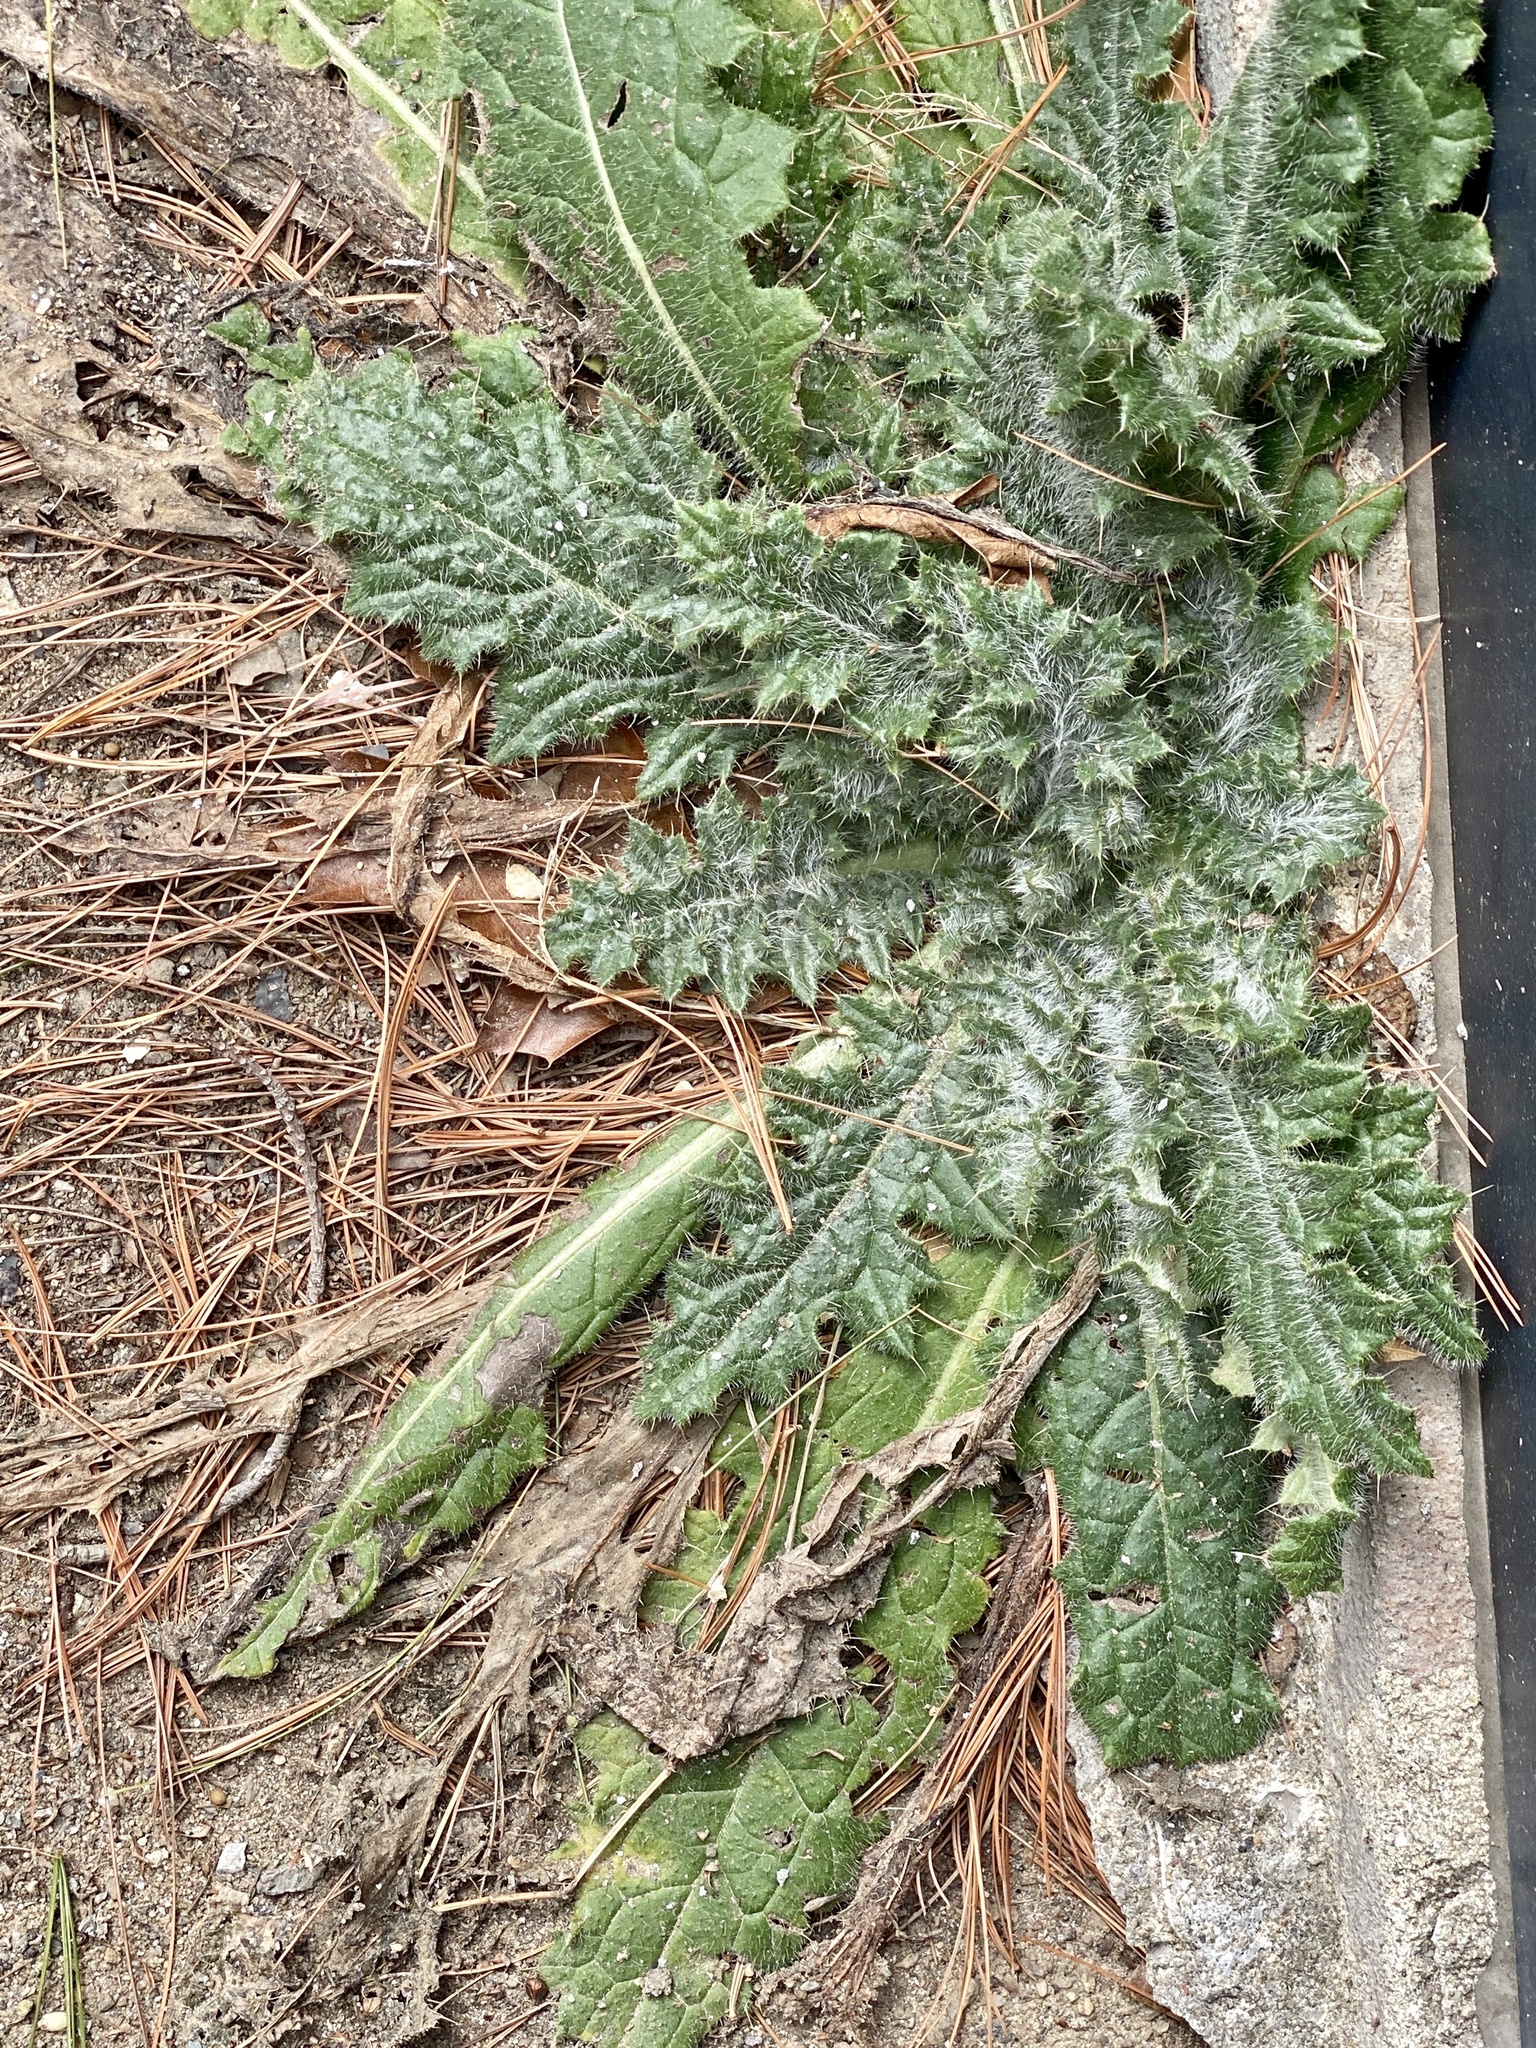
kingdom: Plantae
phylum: Tracheophyta
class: Magnoliopsida
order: Asterales
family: Asteraceae
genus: Cirsium
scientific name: Cirsium vulgare
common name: Bull thistle
